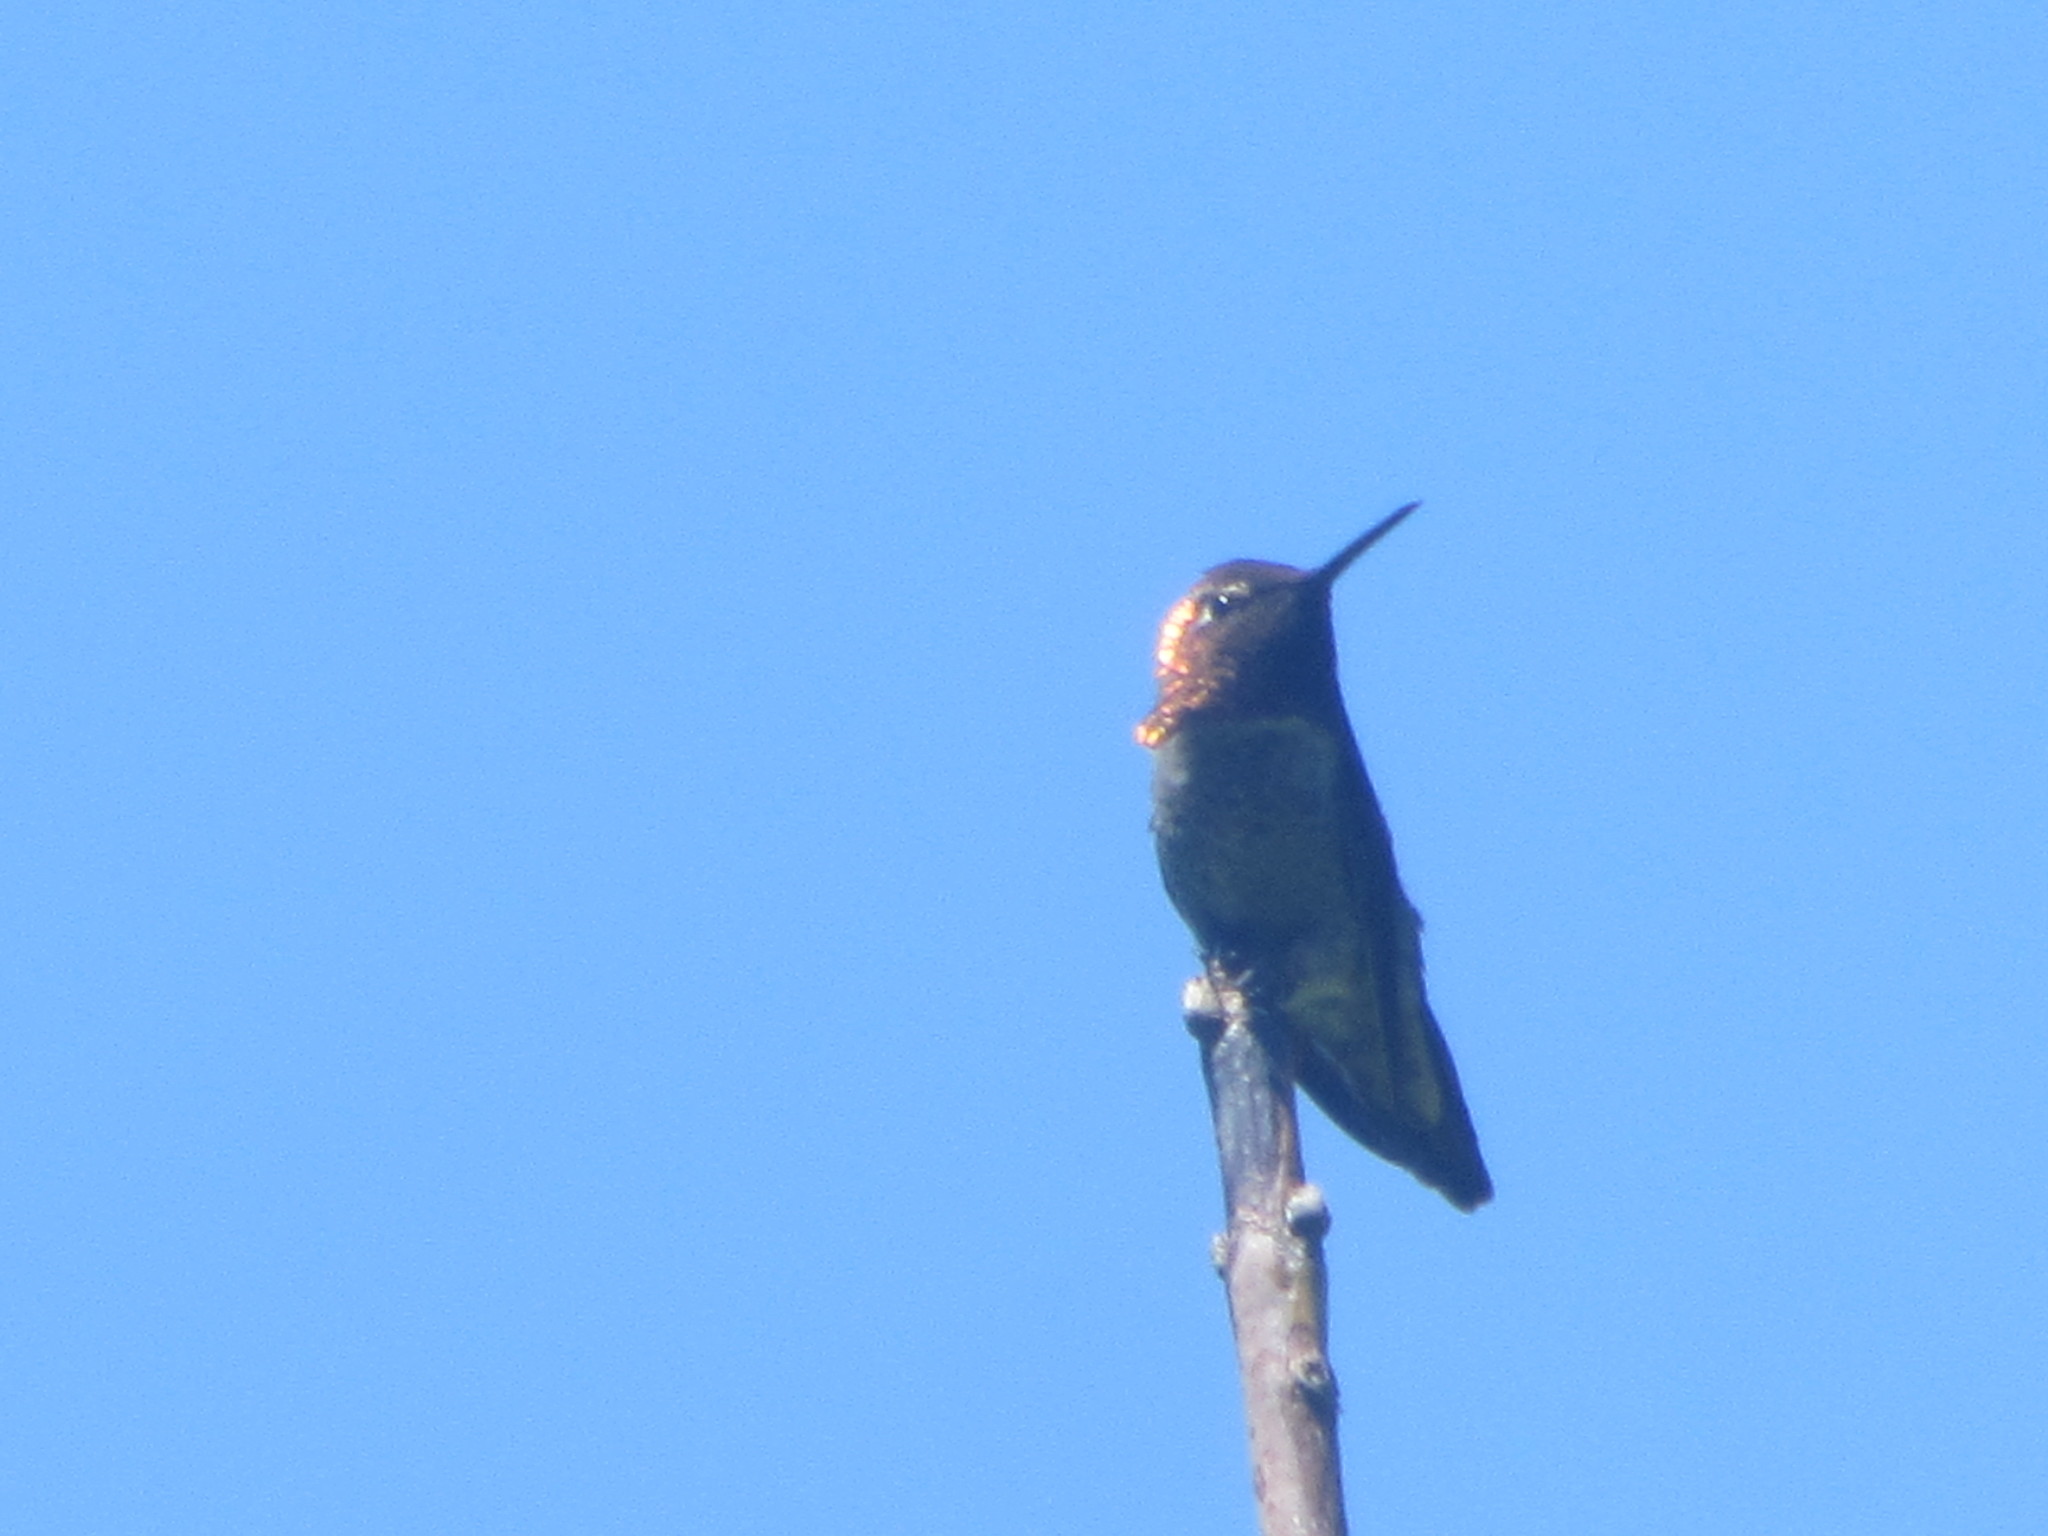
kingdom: Animalia
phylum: Chordata
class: Aves
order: Apodiformes
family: Trochilidae
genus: Calypte
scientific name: Calypte anna
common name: Anna's hummingbird
